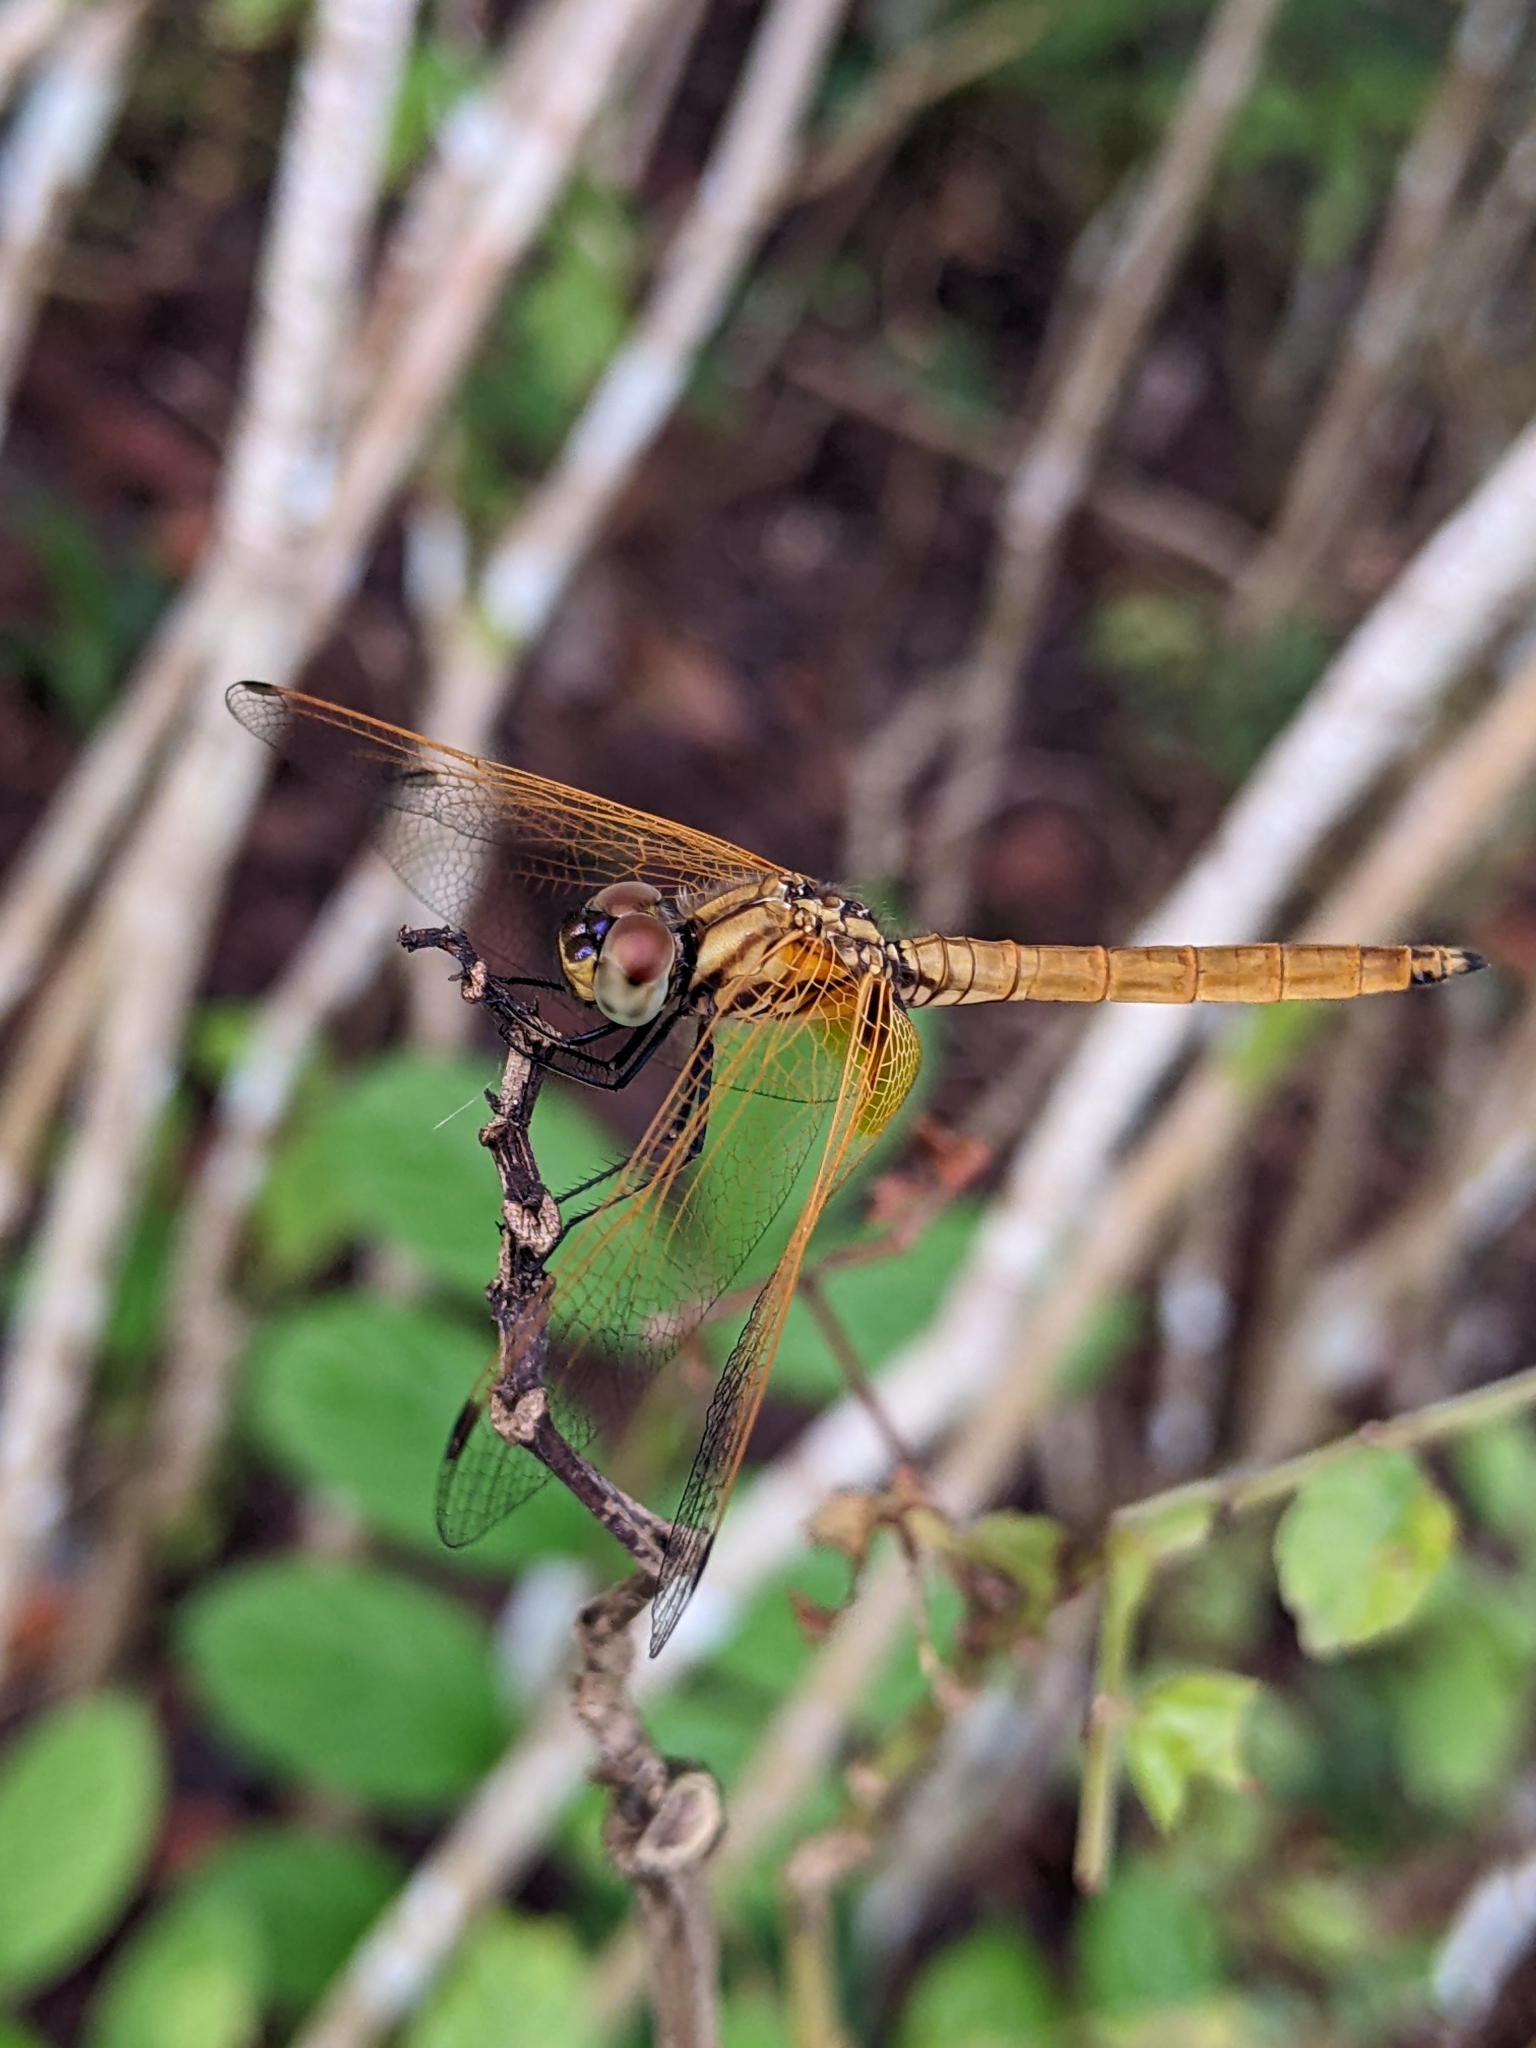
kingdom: Animalia
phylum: Arthropoda
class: Insecta
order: Odonata
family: Libellulidae
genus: Trithemis
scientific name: Trithemis aurora
